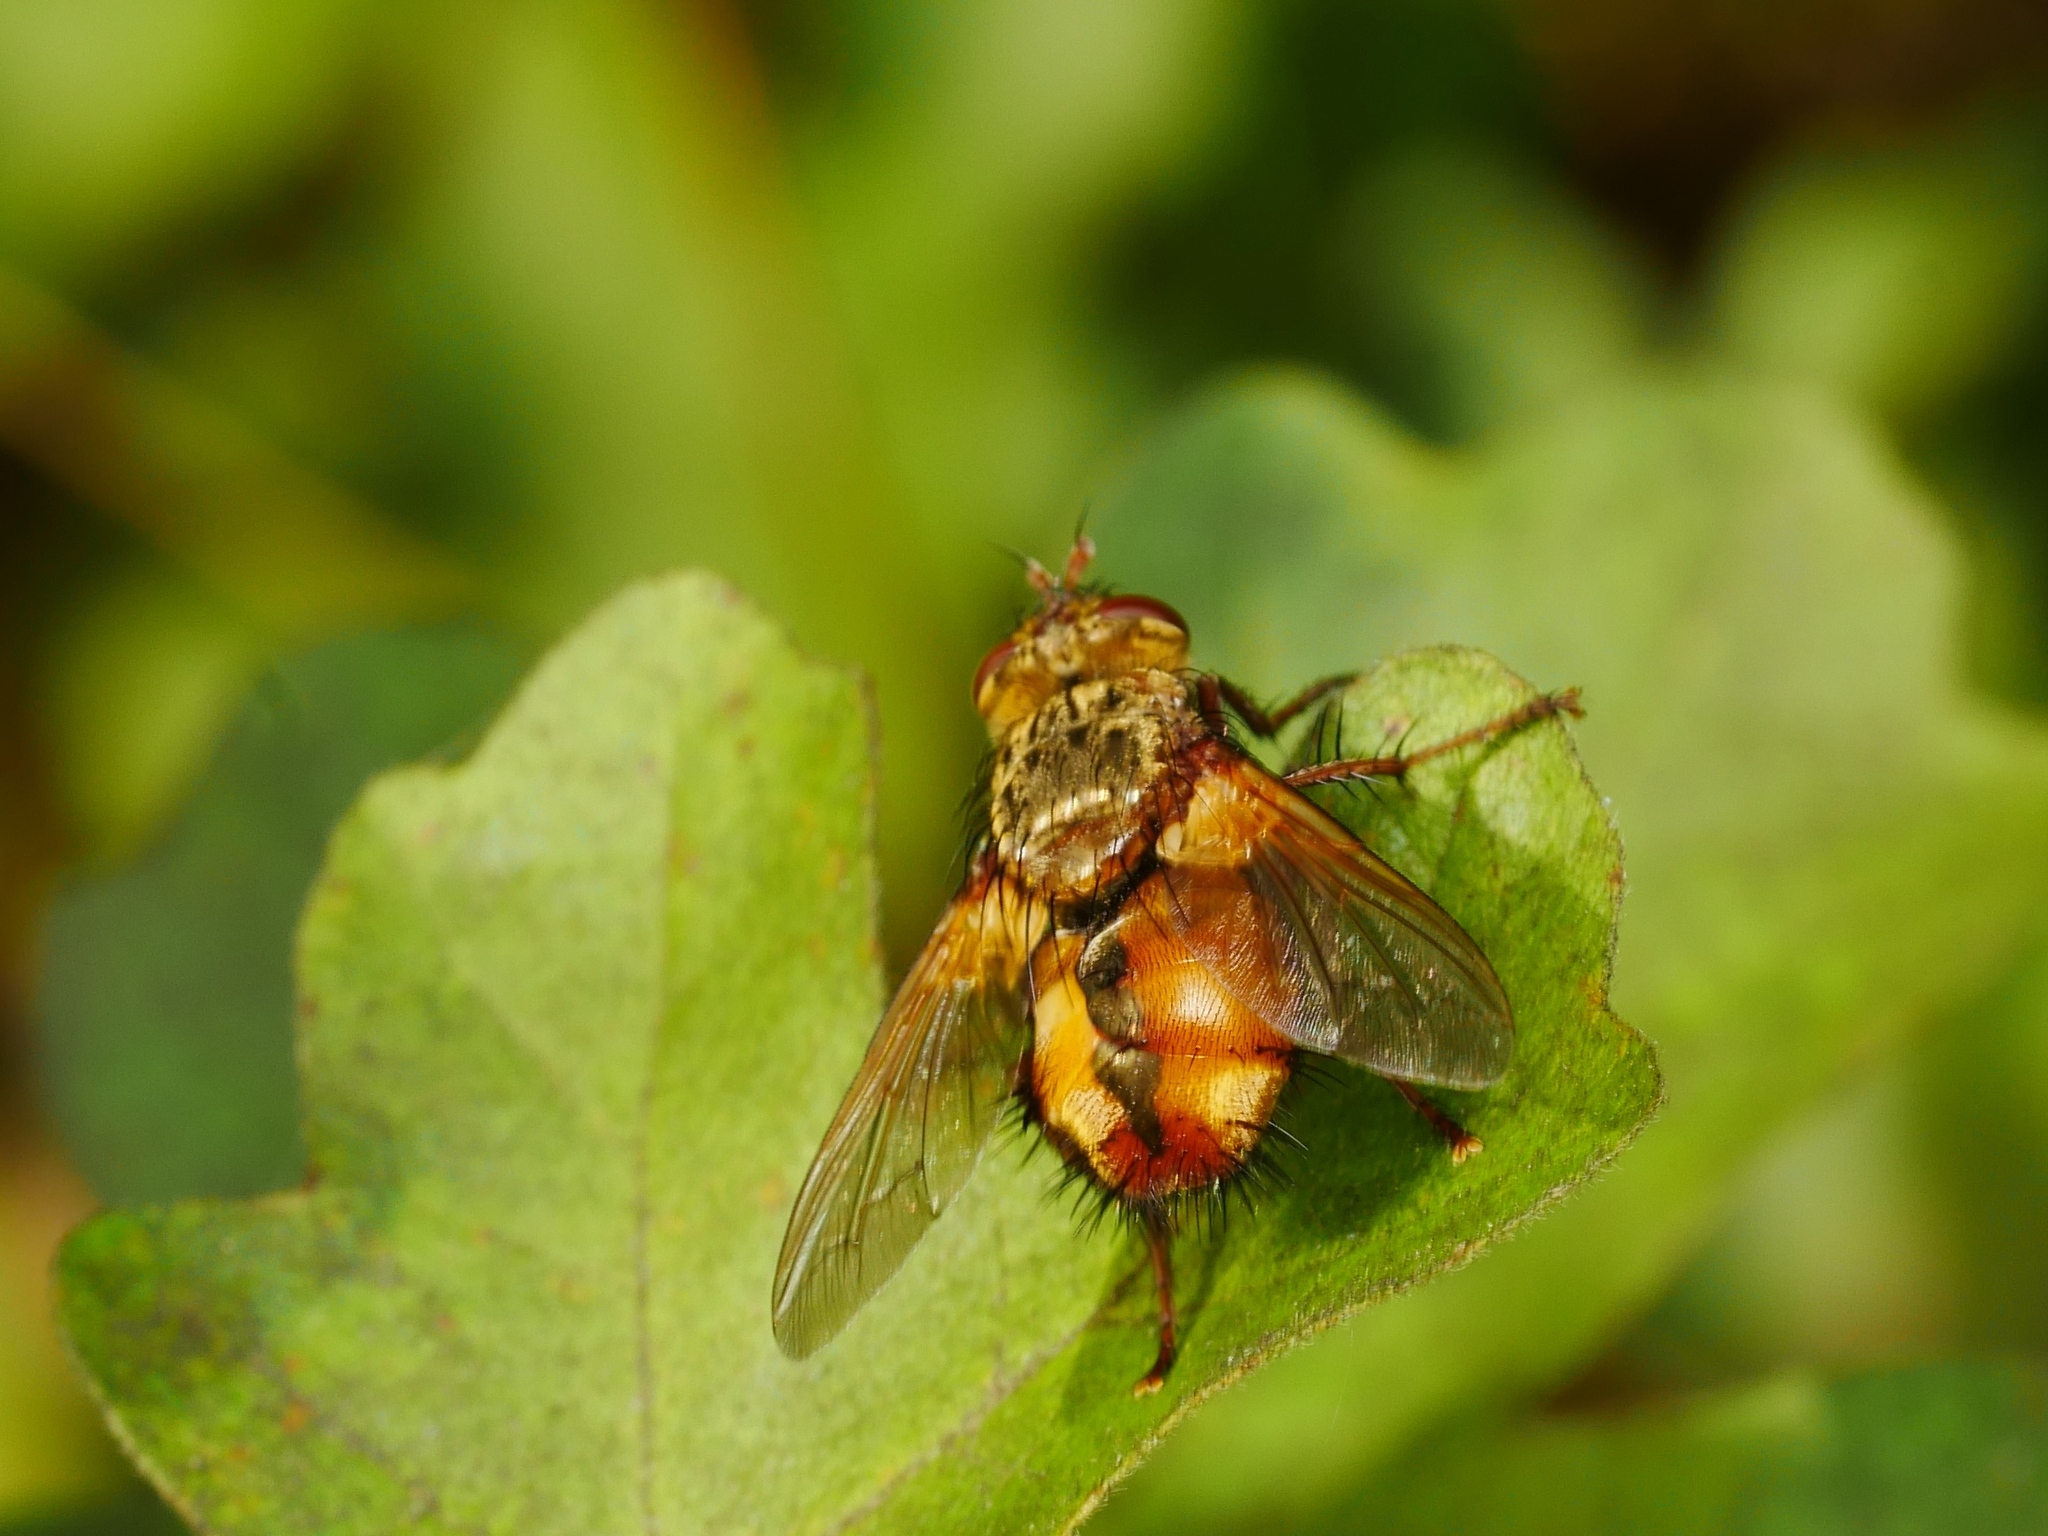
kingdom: Animalia
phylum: Arthropoda
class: Insecta
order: Diptera
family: Tachinidae
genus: Tachina
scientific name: Tachina fera
